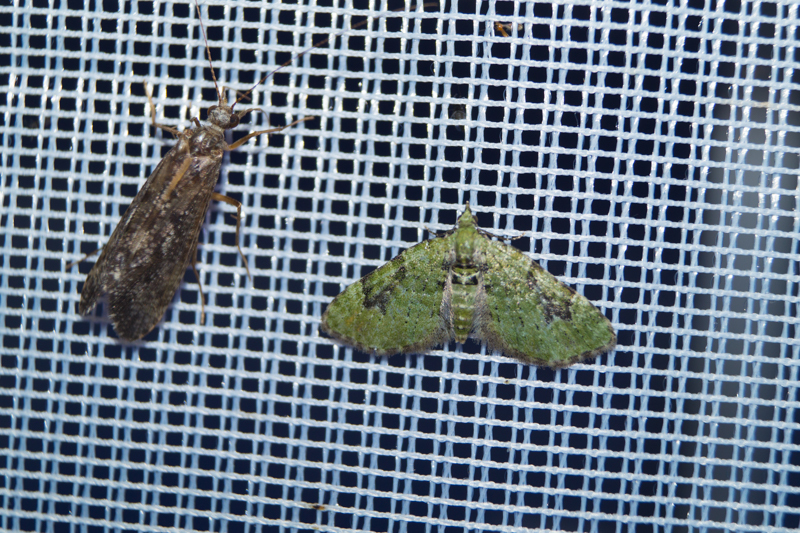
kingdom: Animalia
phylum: Arthropoda
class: Insecta
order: Lepidoptera
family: Geometridae
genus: Chloroclystis
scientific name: Chloroclystis v-ata
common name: V-pug
